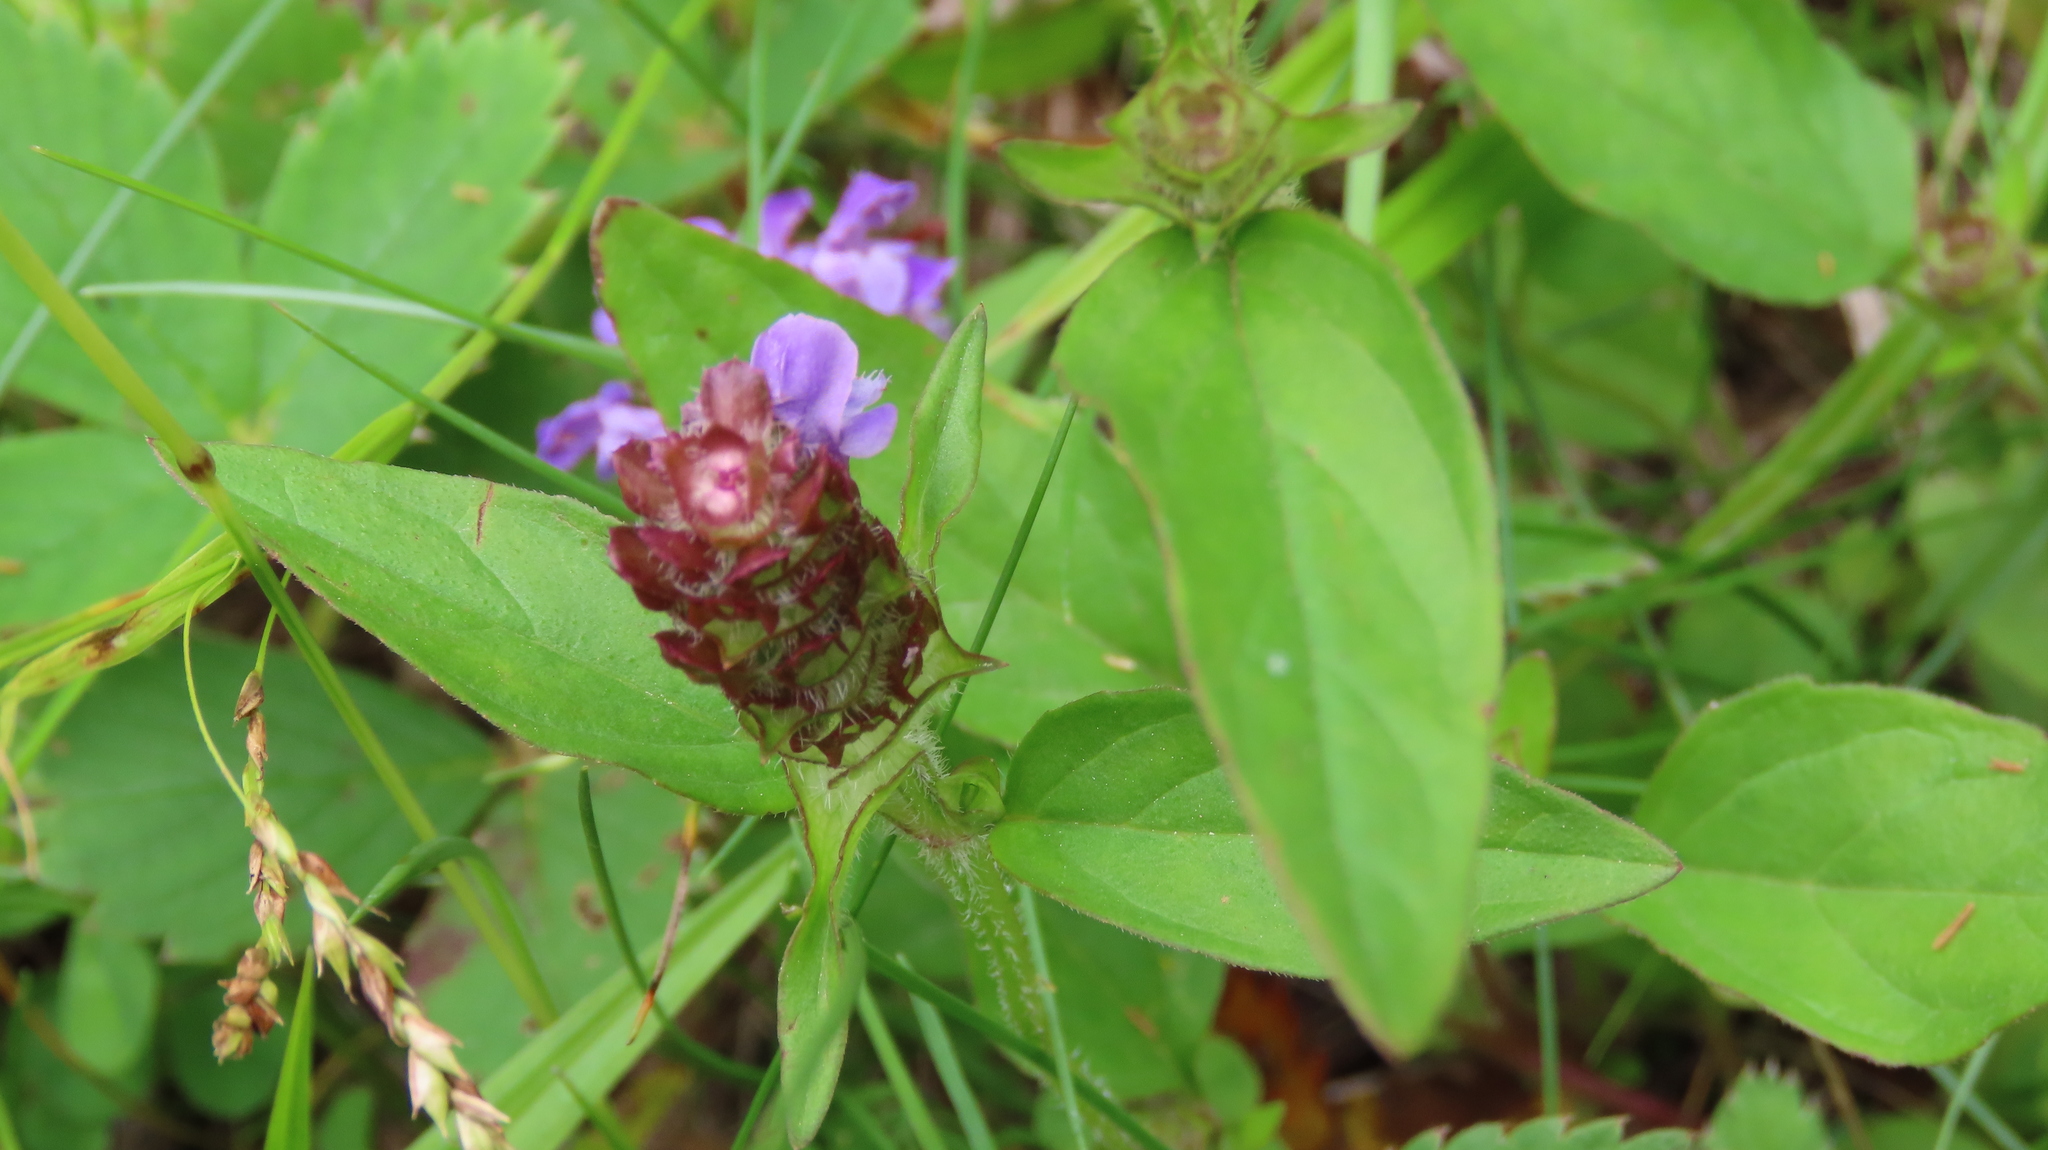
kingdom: Plantae
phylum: Tracheophyta
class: Magnoliopsida
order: Lamiales
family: Lamiaceae
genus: Prunella
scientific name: Prunella vulgaris
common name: Heal-all
